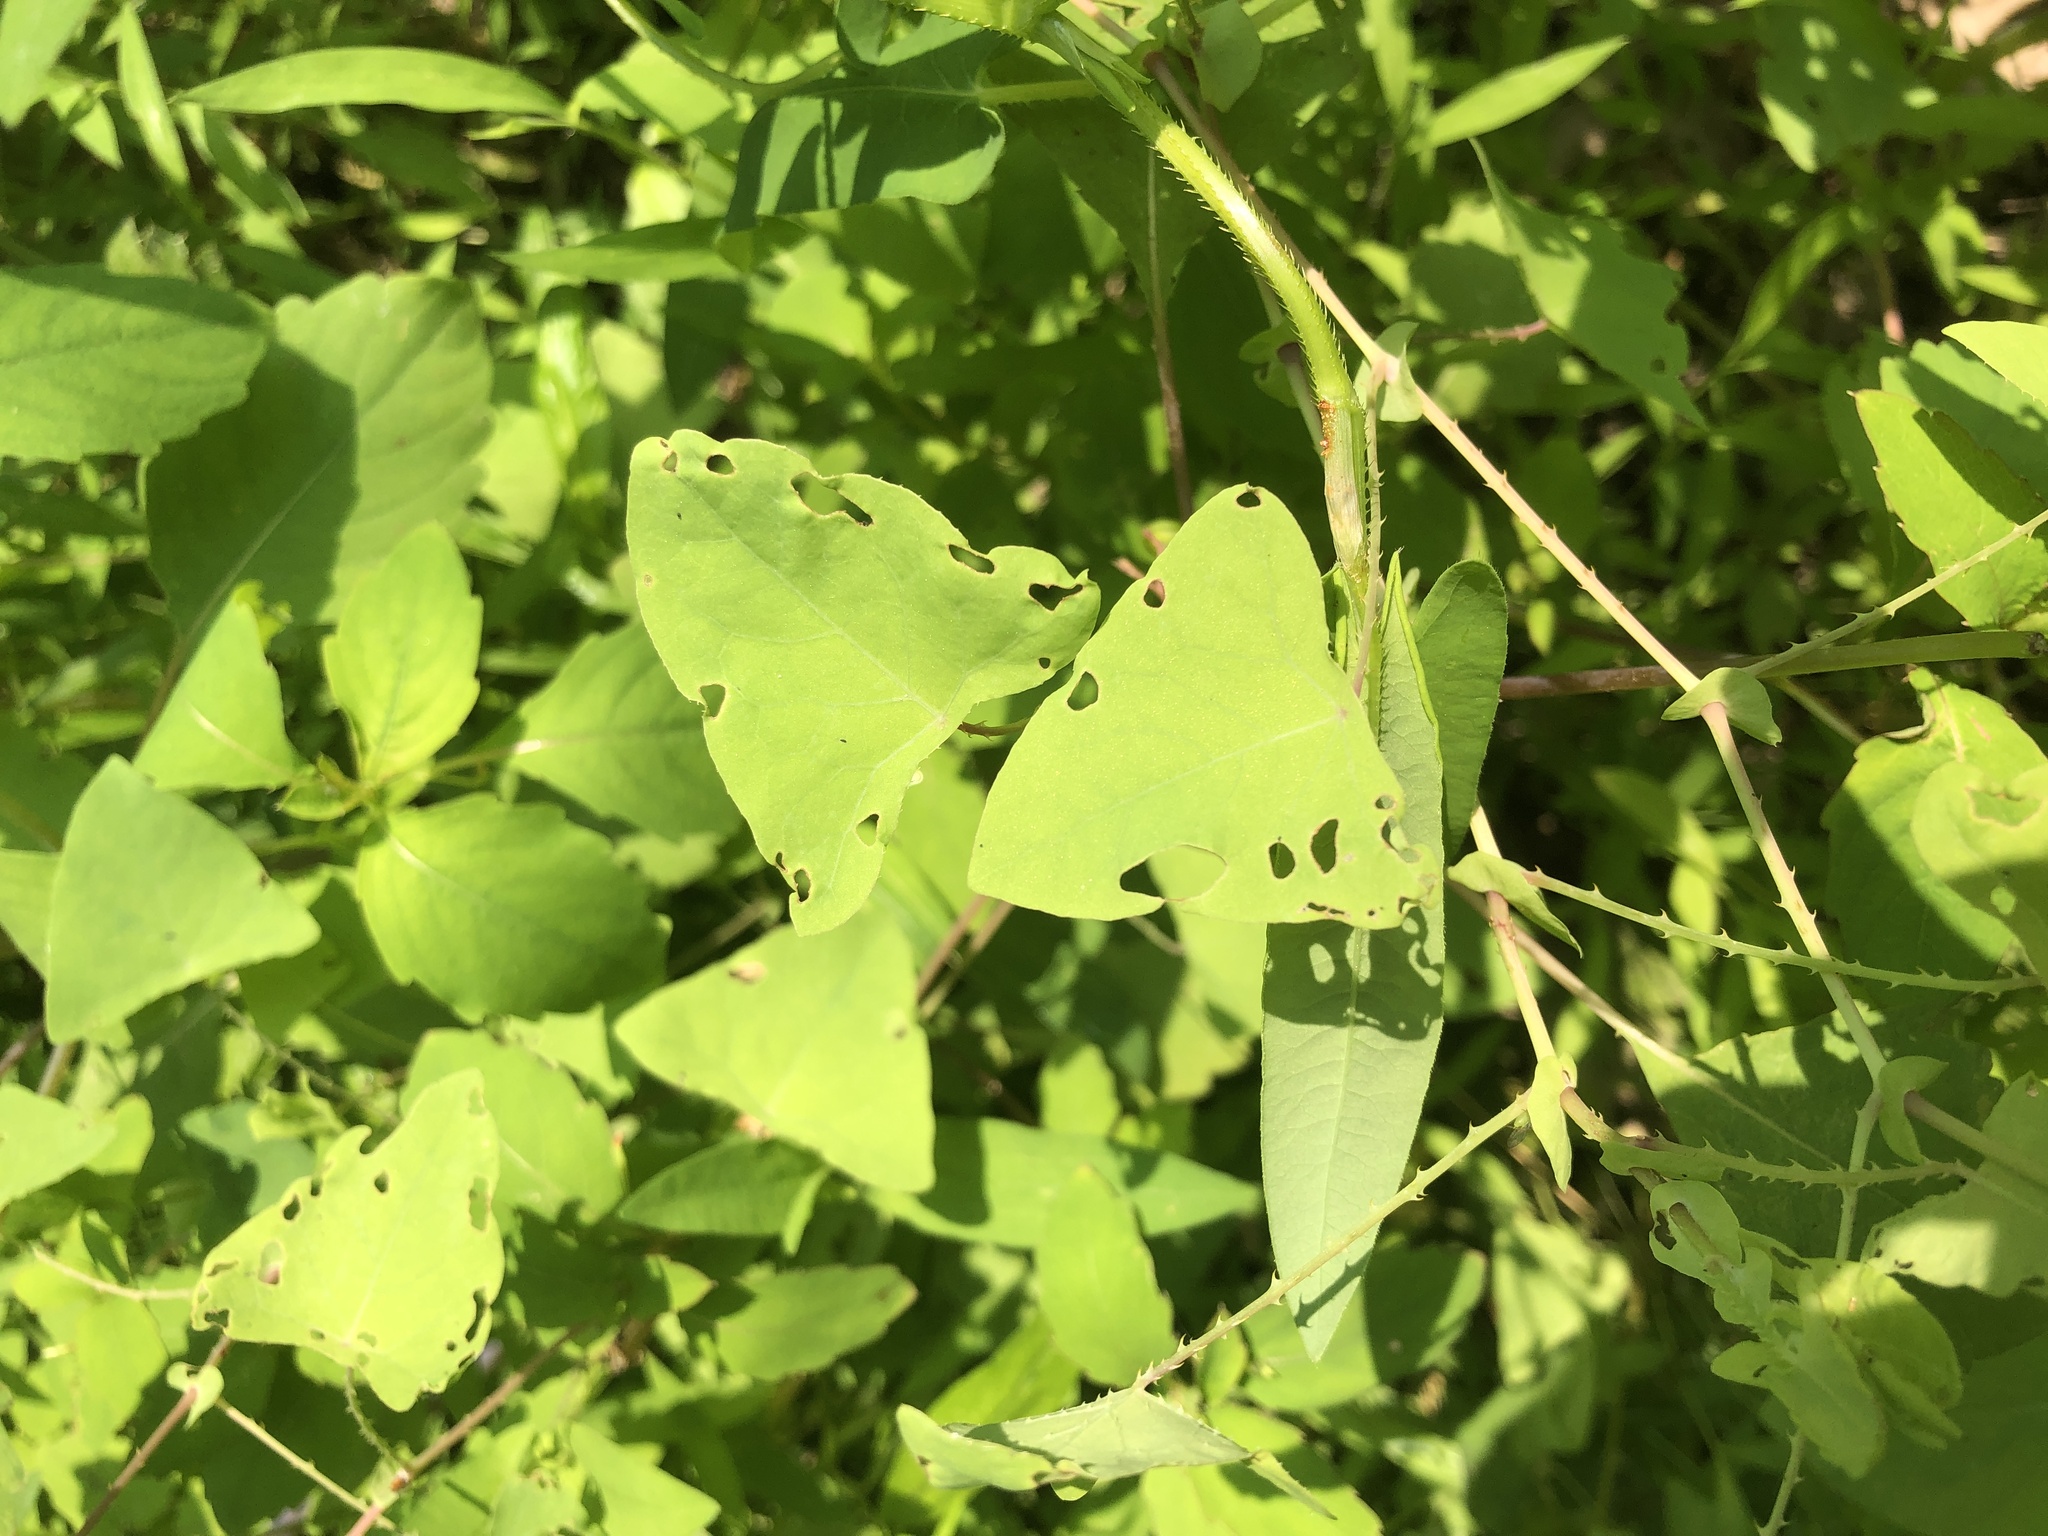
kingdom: Plantae
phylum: Tracheophyta
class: Magnoliopsida
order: Caryophyllales
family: Polygonaceae
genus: Persicaria
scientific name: Persicaria perfoliata
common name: Asiatic tearthumb
